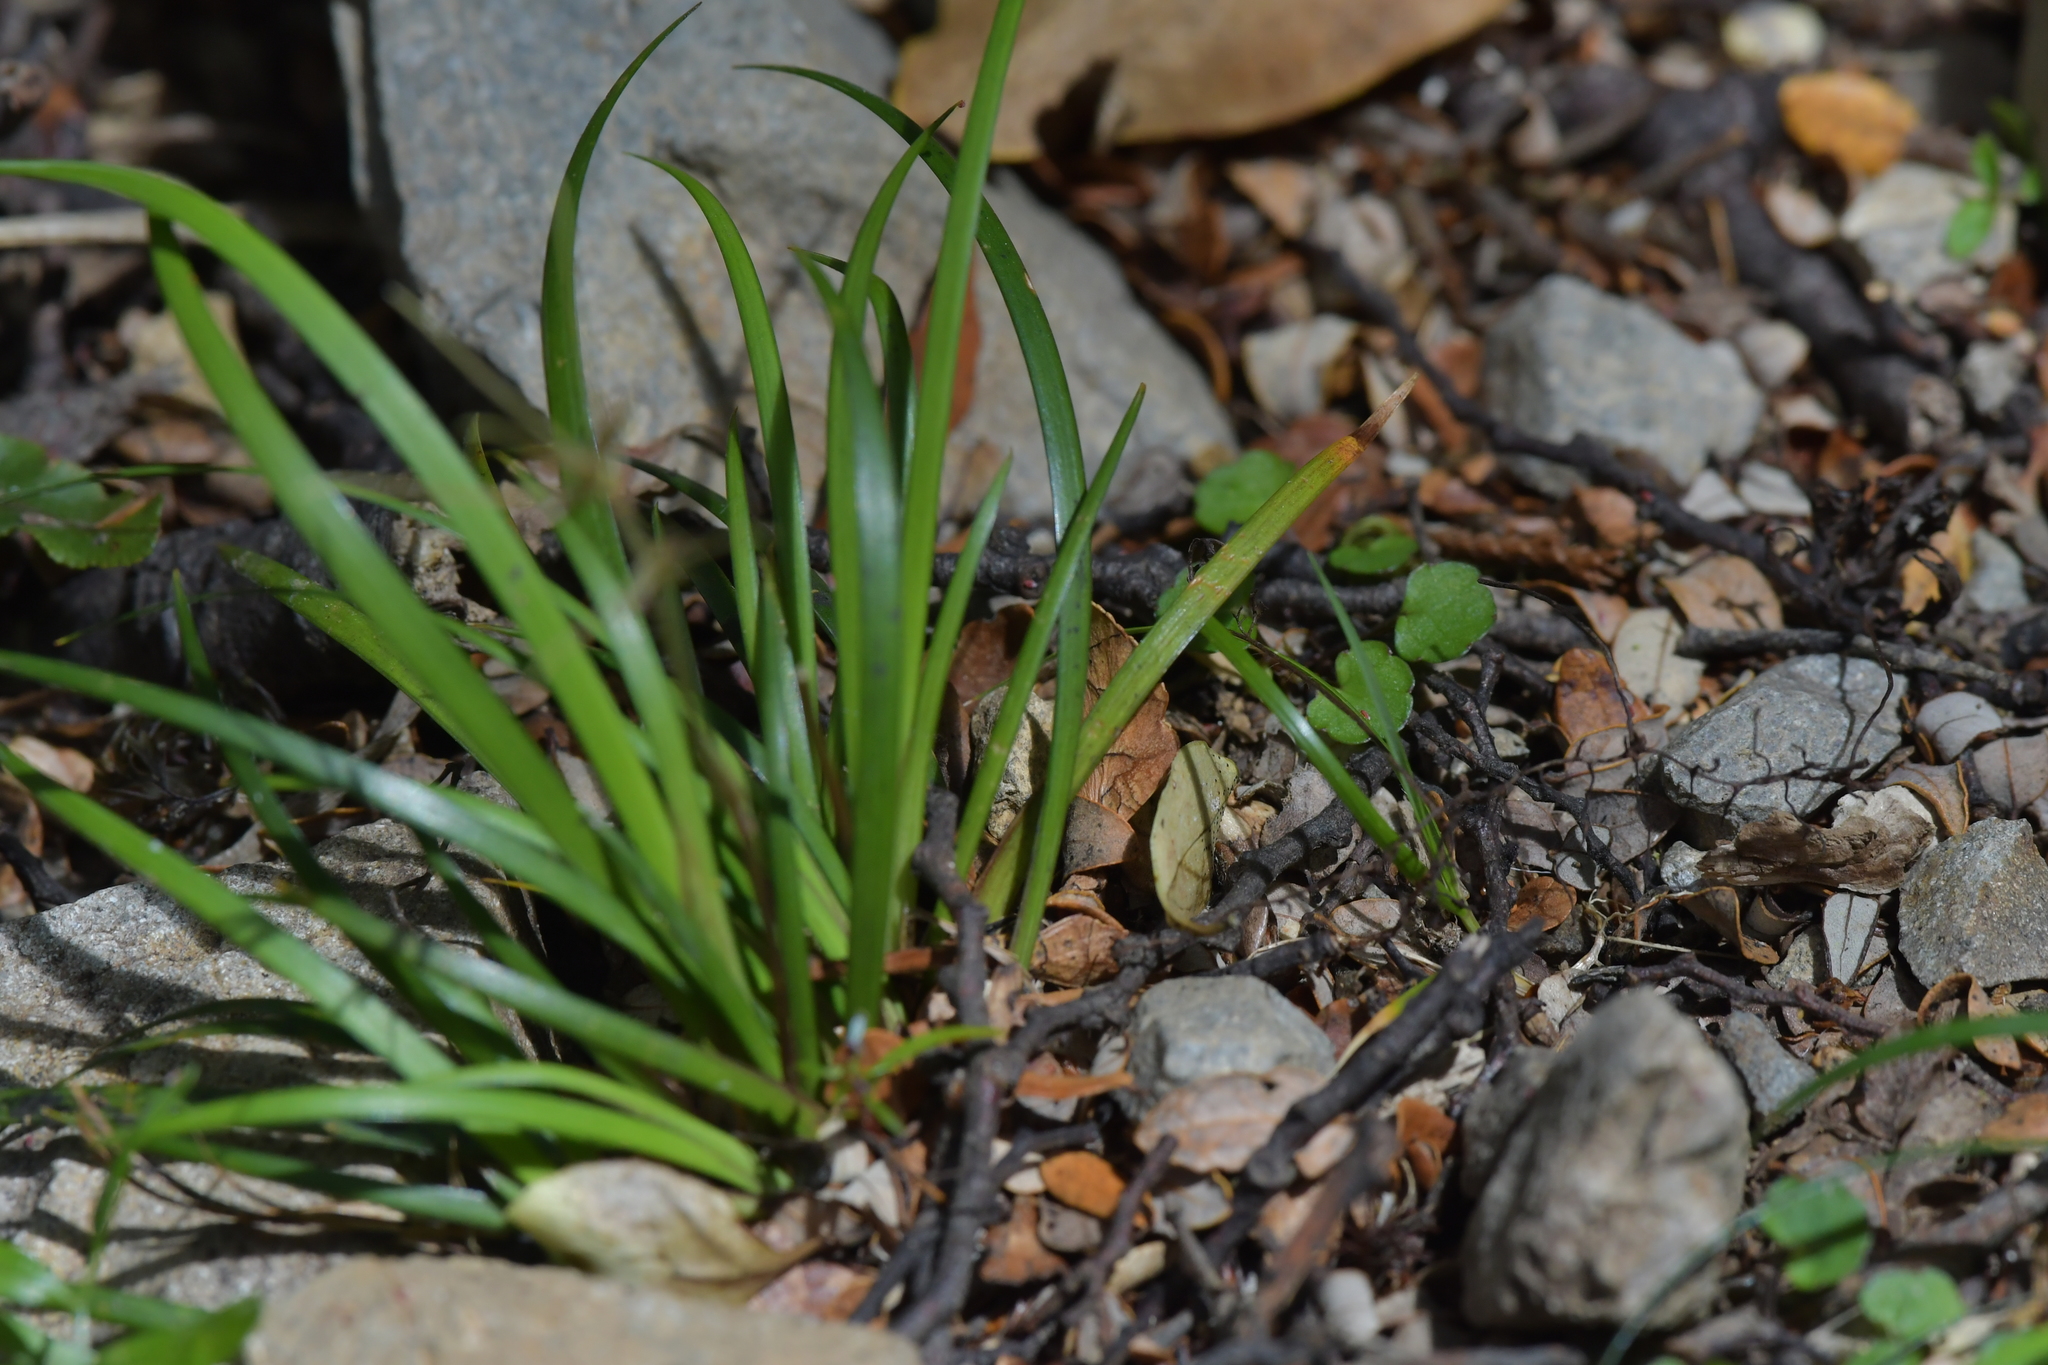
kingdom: Plantae
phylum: Tracheophyta
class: Liliopsida
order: Asparagales
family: Iridaceae
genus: Libertia
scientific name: Libertia micrantha
